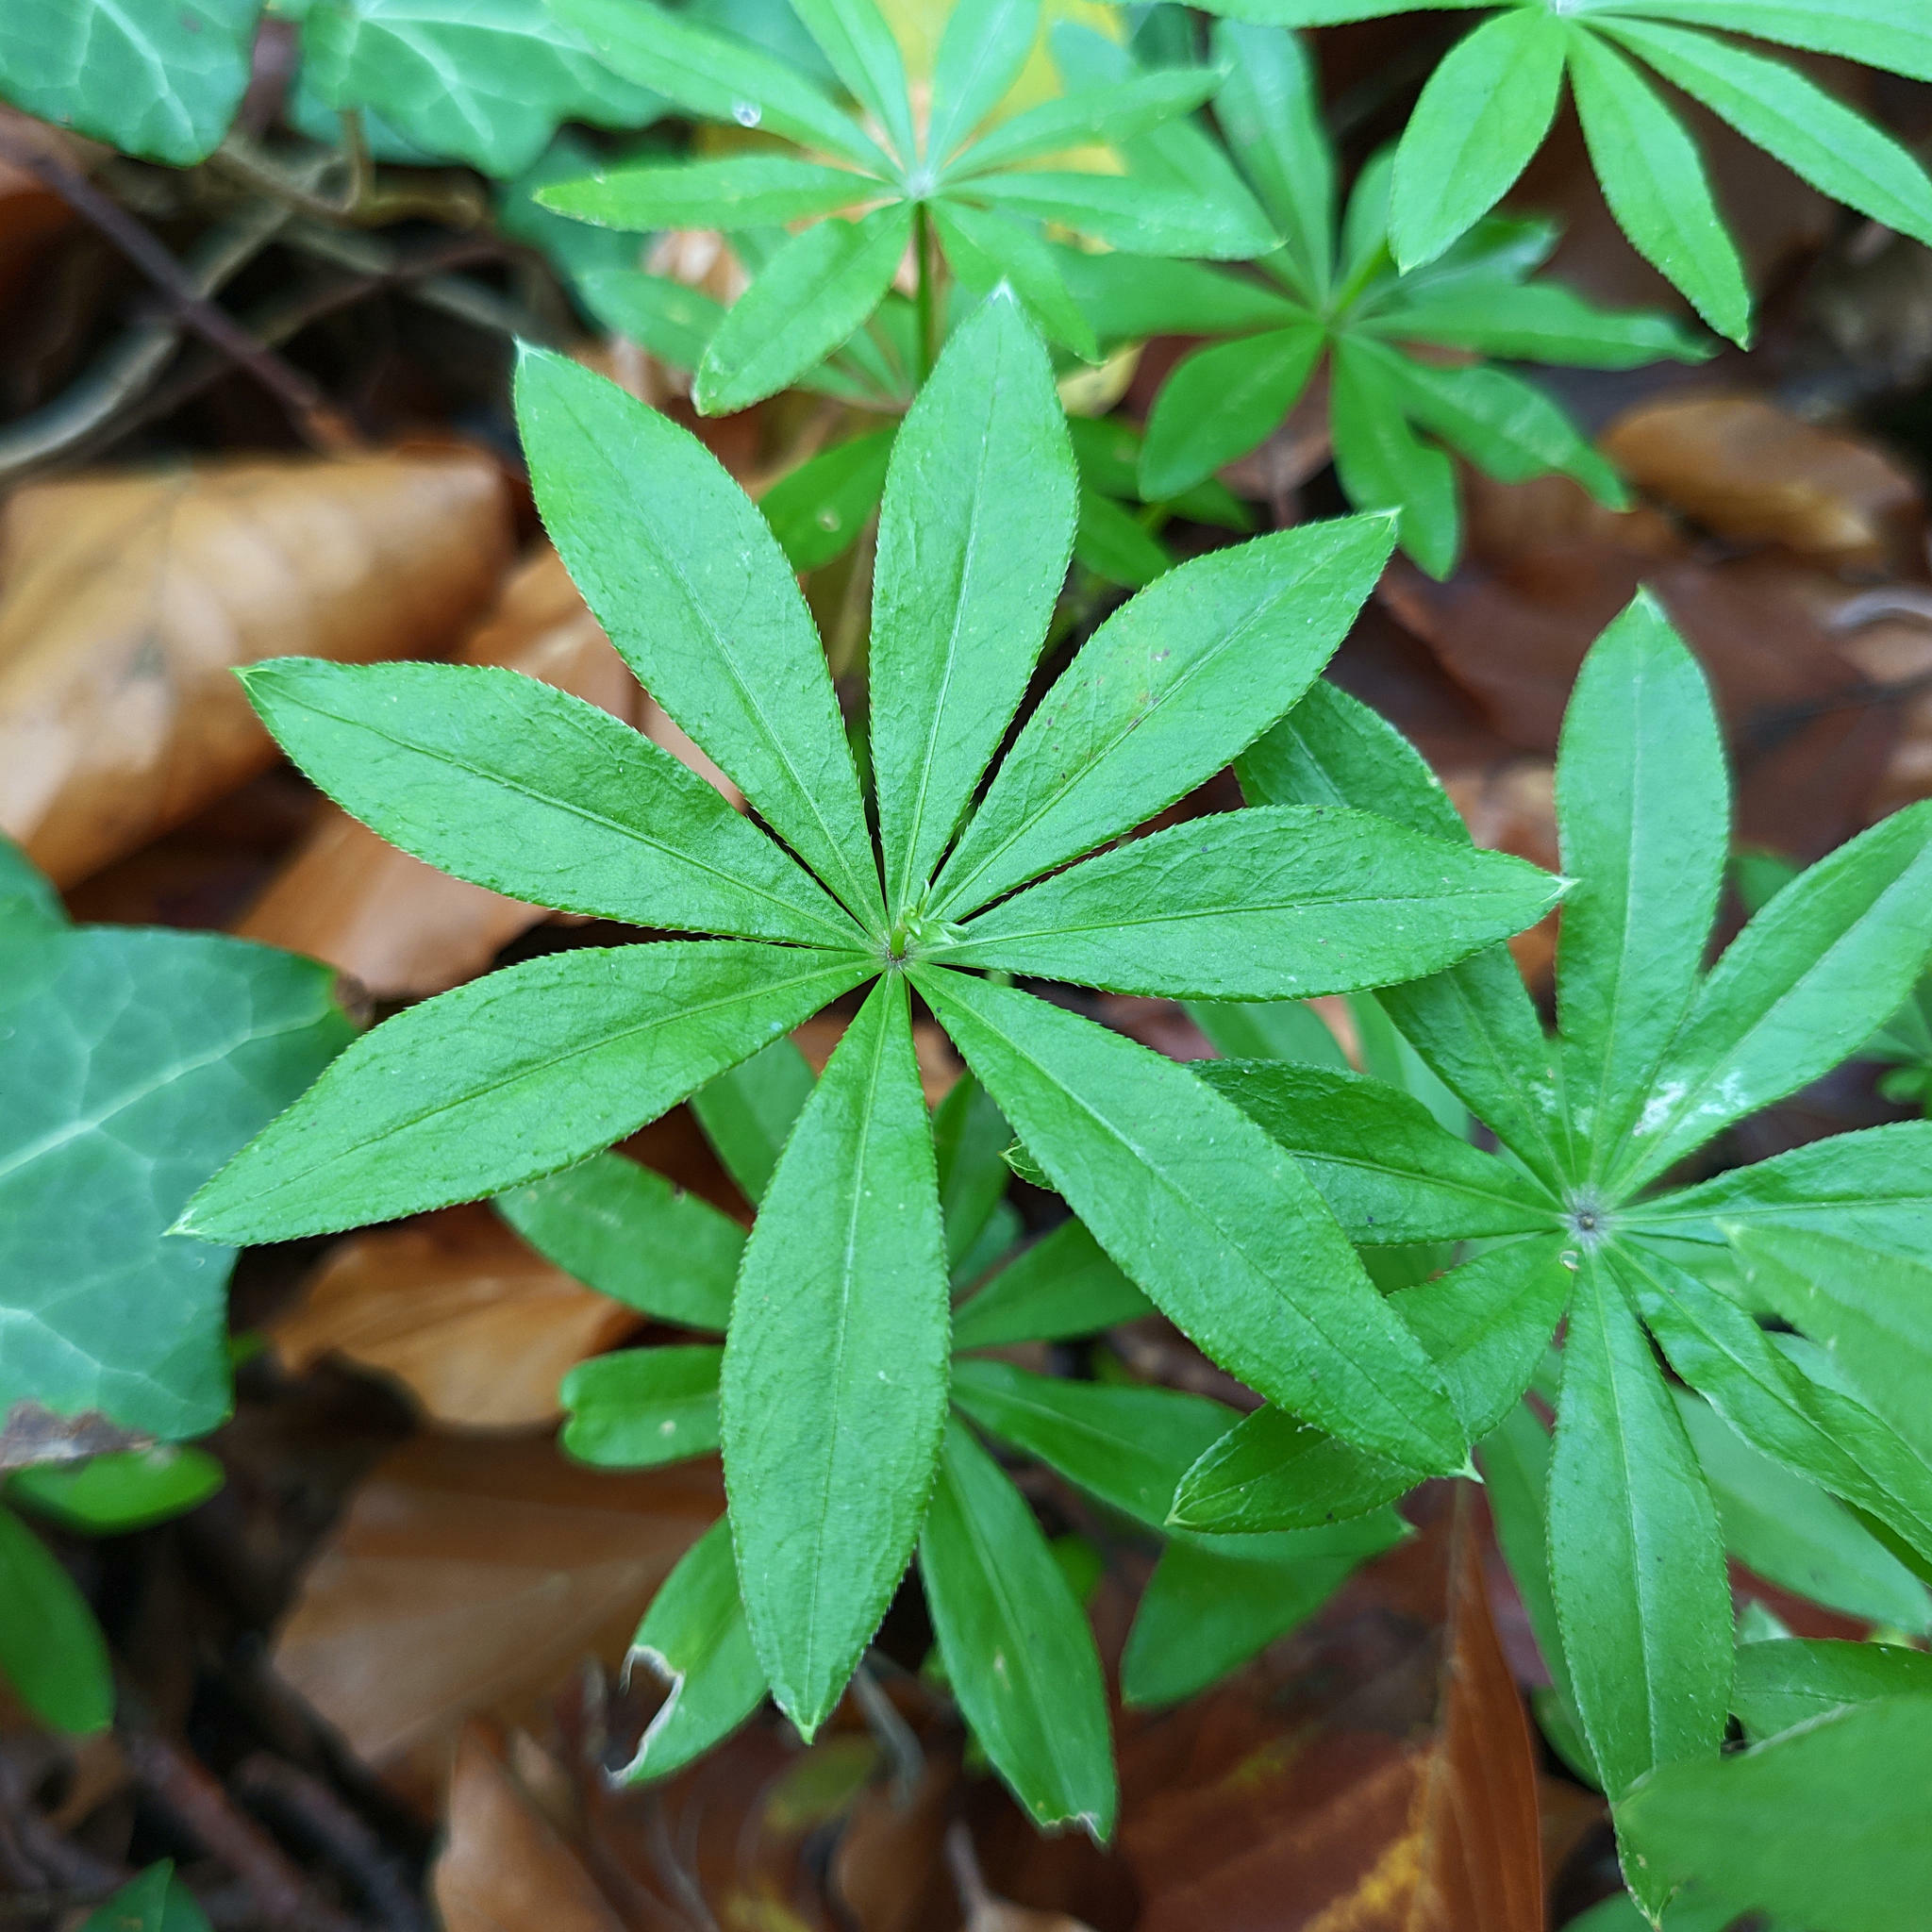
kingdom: Plantae
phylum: Tracheophyta
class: Magnoliopsida
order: Gentianales
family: Rubiaceae
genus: Galium
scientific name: Galium odoratum
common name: Sweet woodruff
